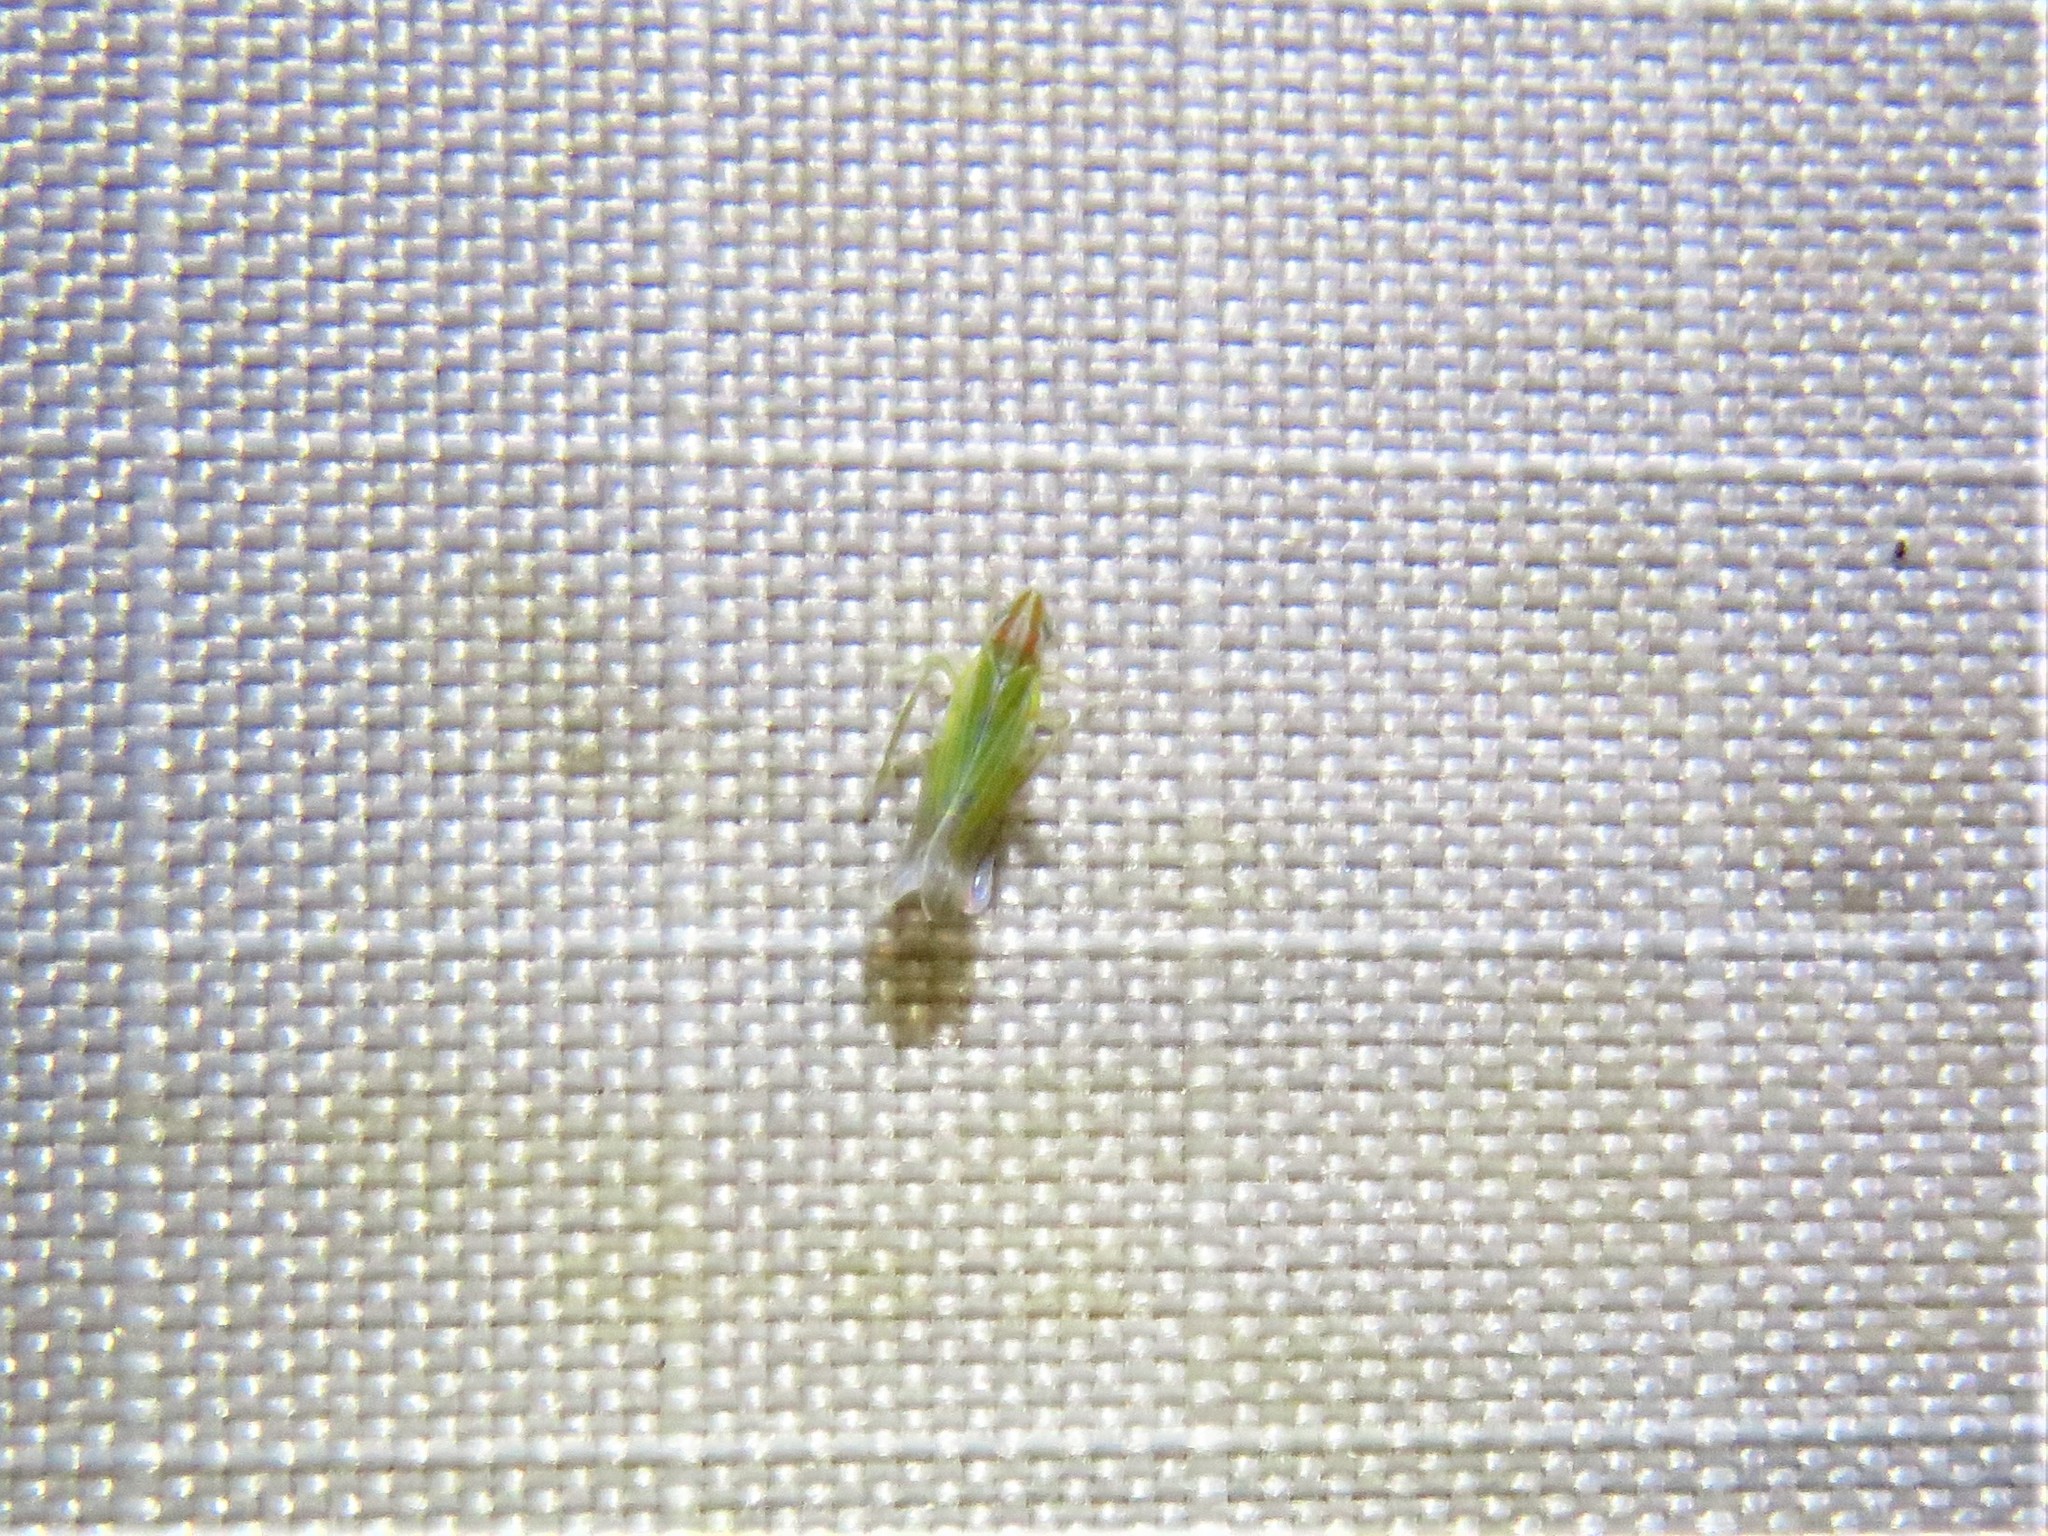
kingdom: Animalia
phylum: Arthropoda
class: Insecta
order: Hemiptera
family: Cicadellidae
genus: Dikraneura
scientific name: Dikraneura angustata
